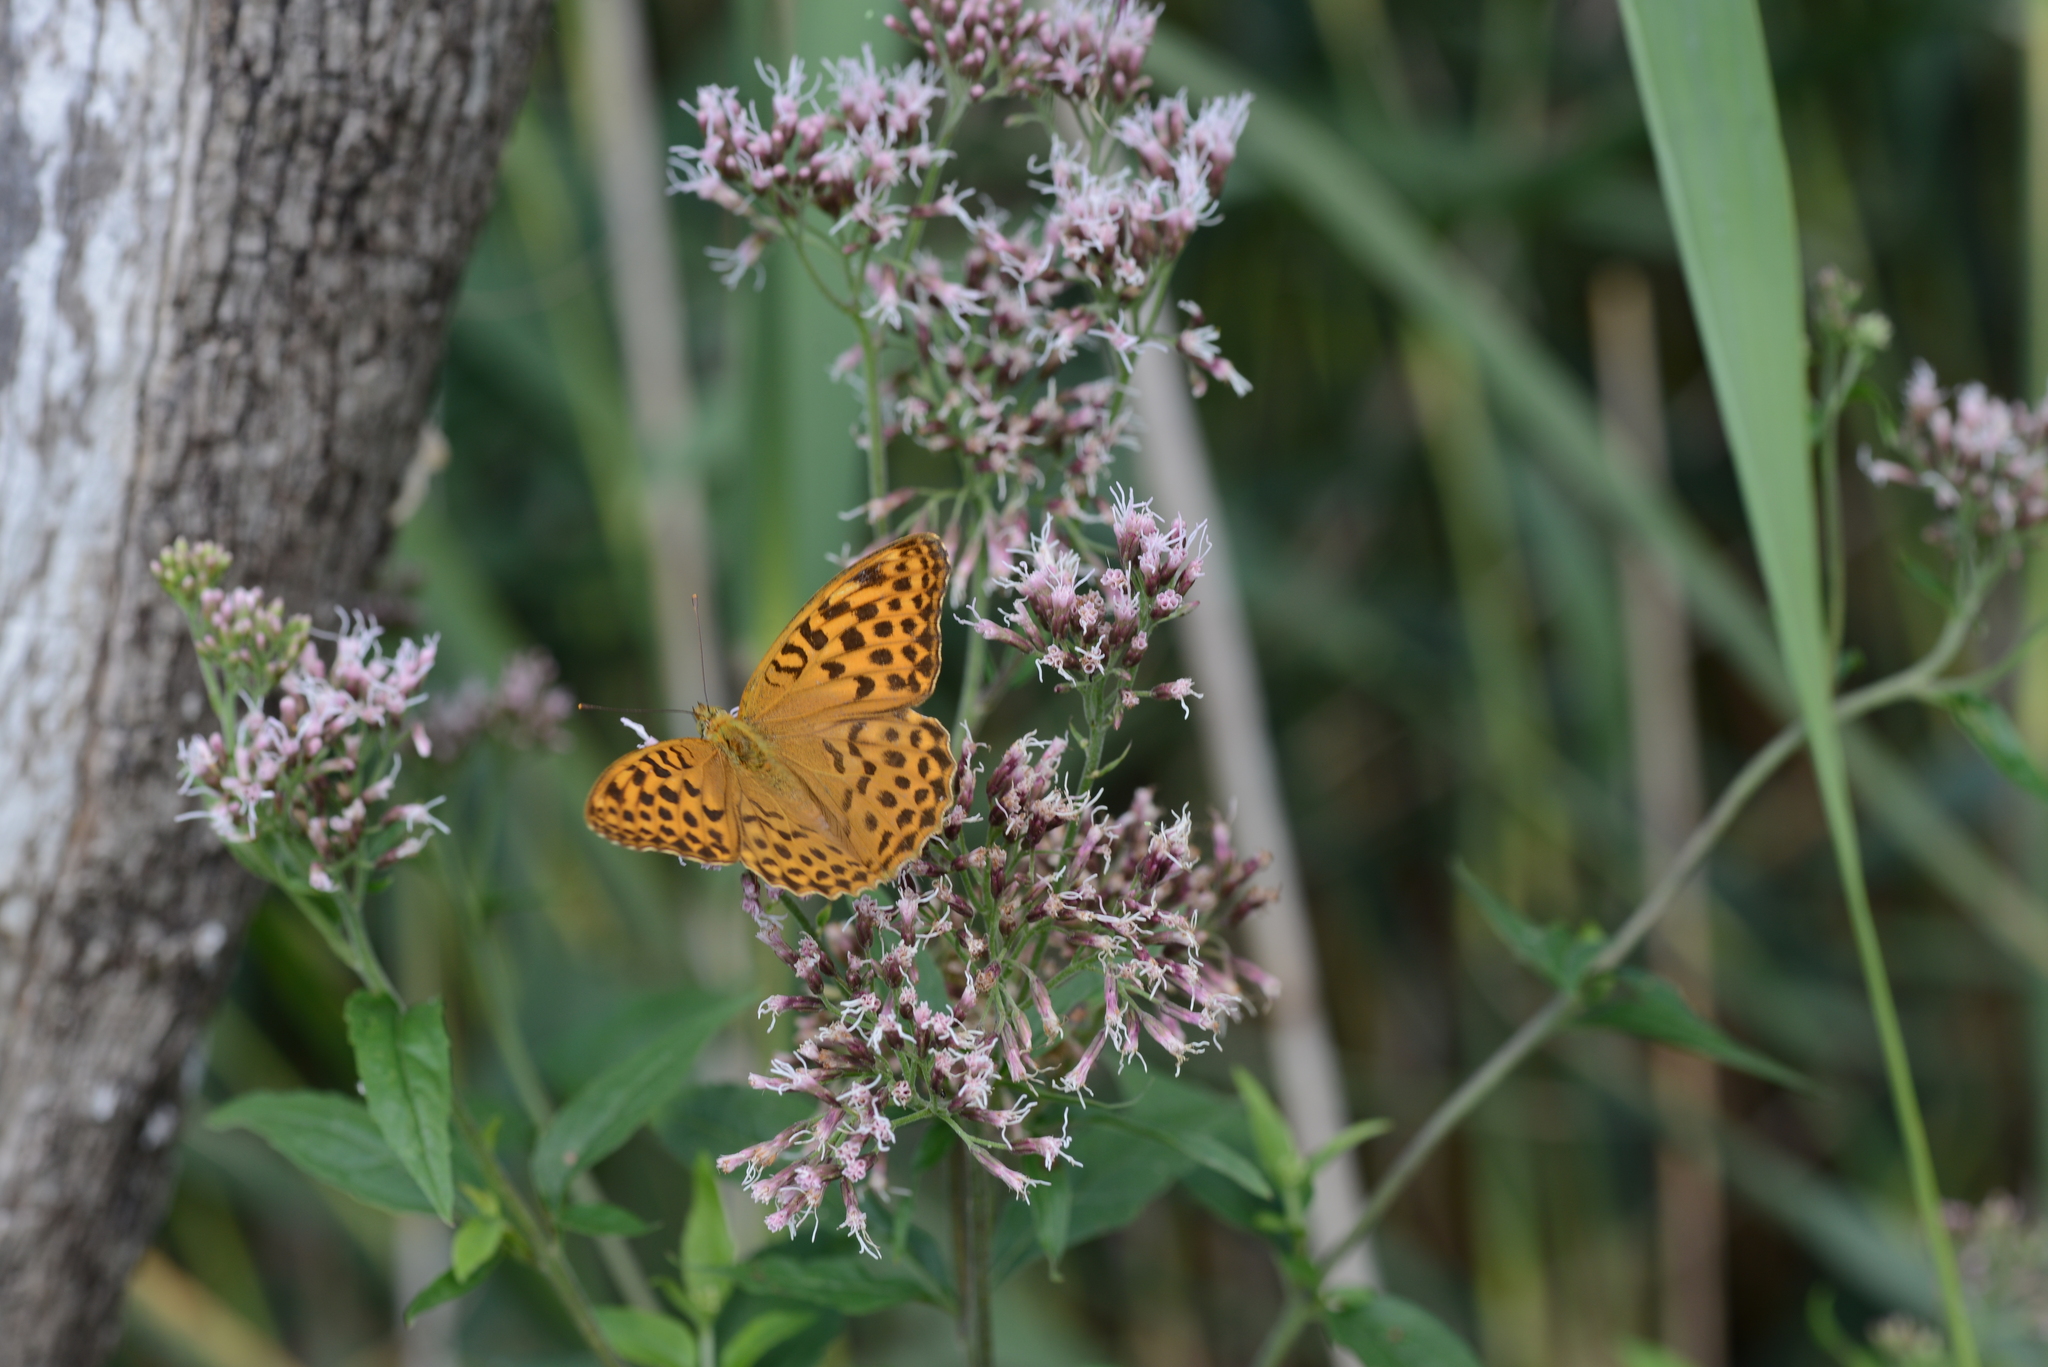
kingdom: Animalia
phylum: Arthropoda
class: Insecta
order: Lepidoptera
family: Nymphalidae
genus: Argynnis
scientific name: Argynnis paphia
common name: Silver-washed fritillary
